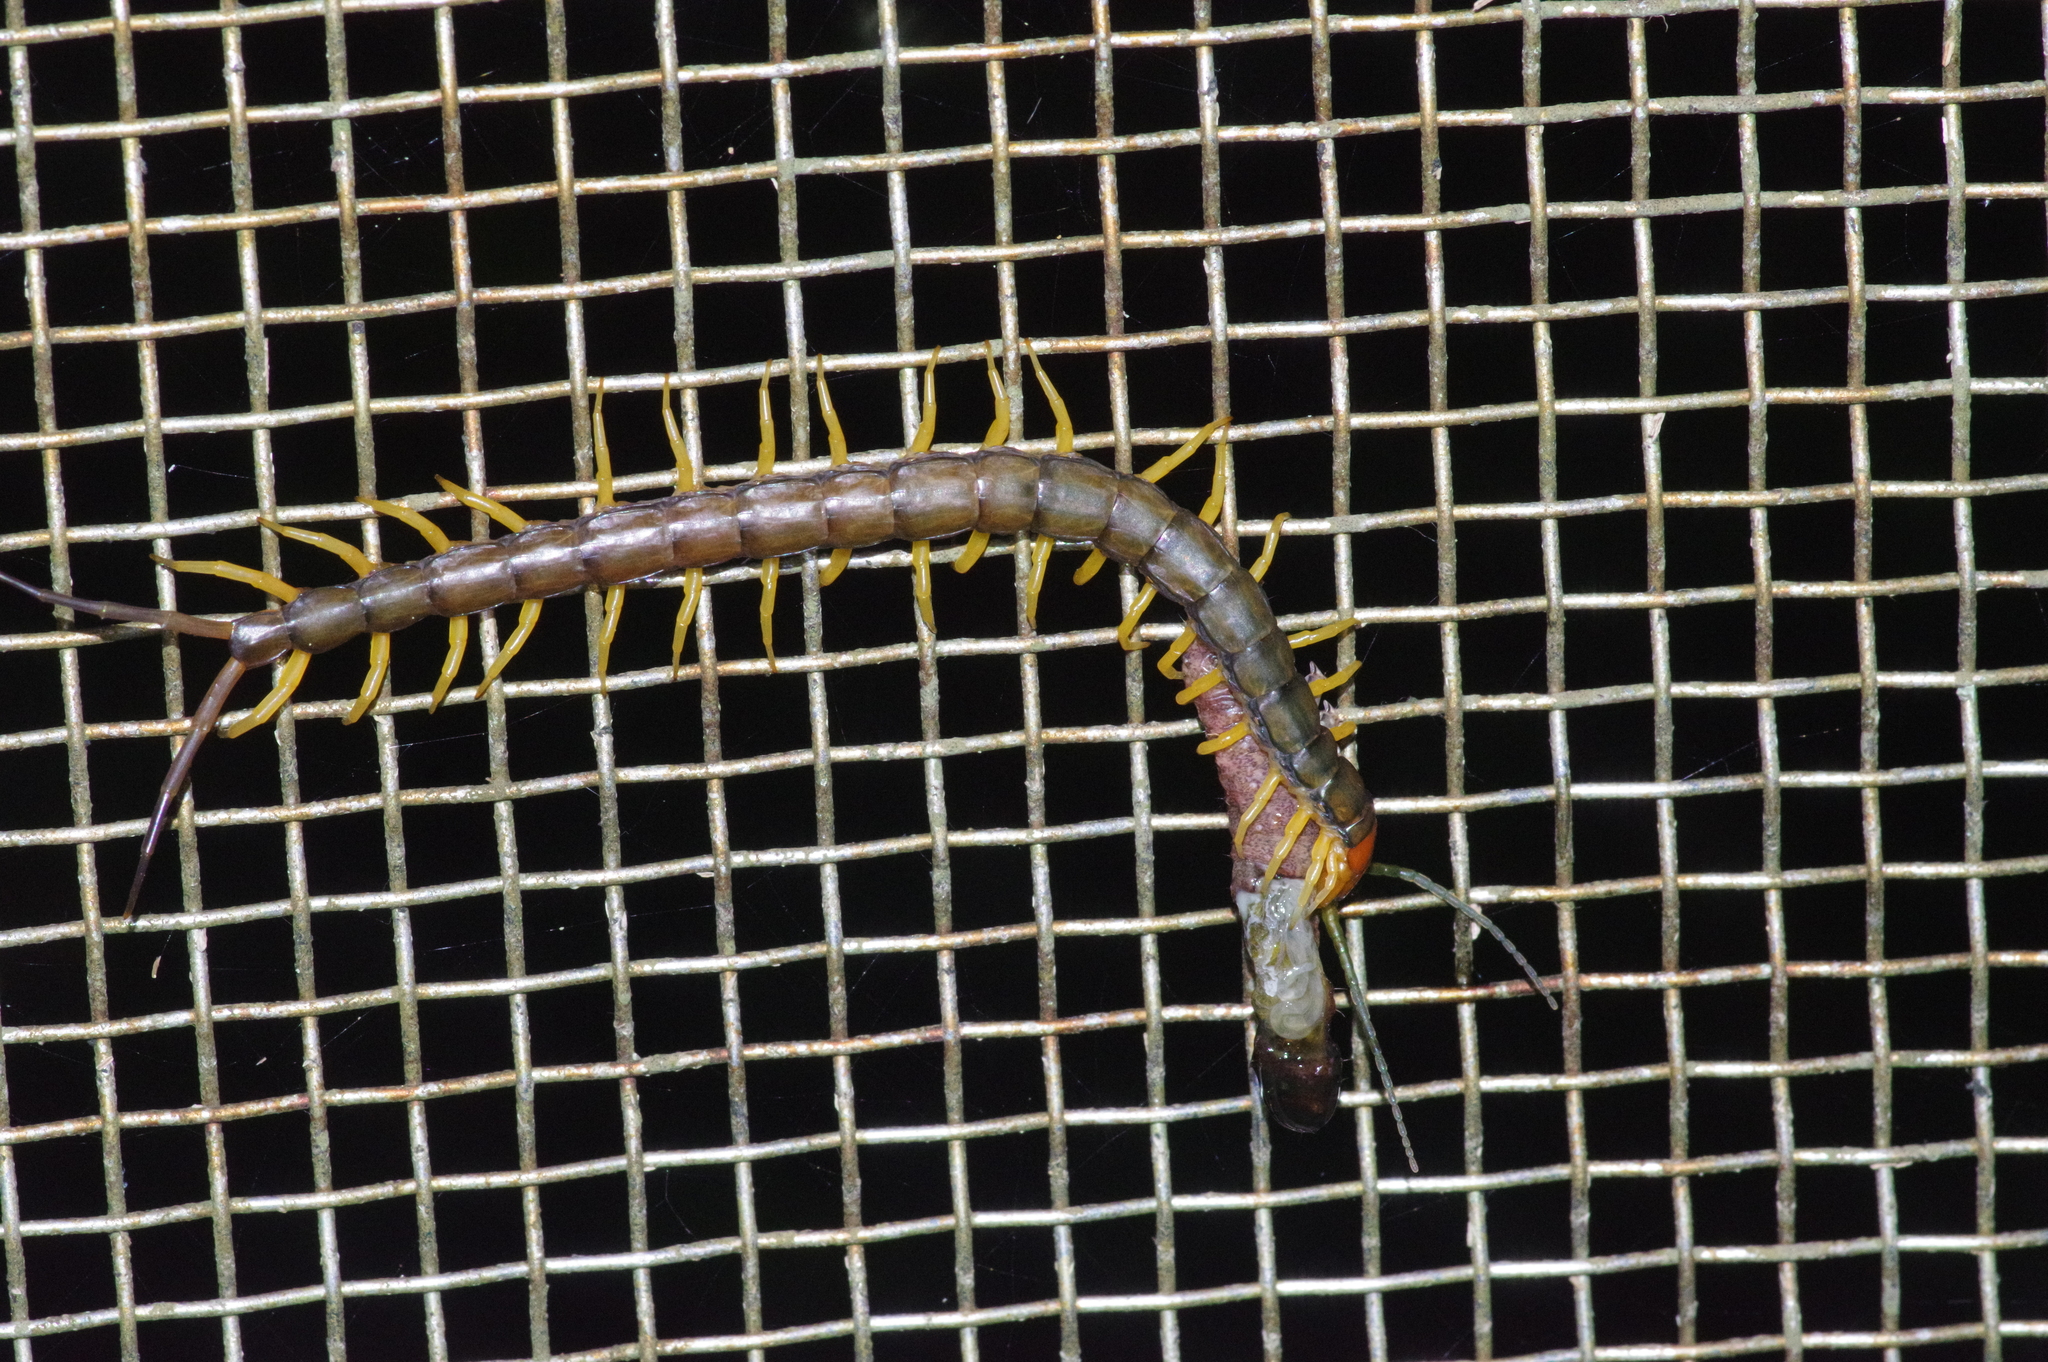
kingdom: Animalia
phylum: Arthropoda
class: Chilopoda
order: Scolopendromorpha
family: Scolopendridae
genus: Scolopendra
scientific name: Scolopendra mutilans
